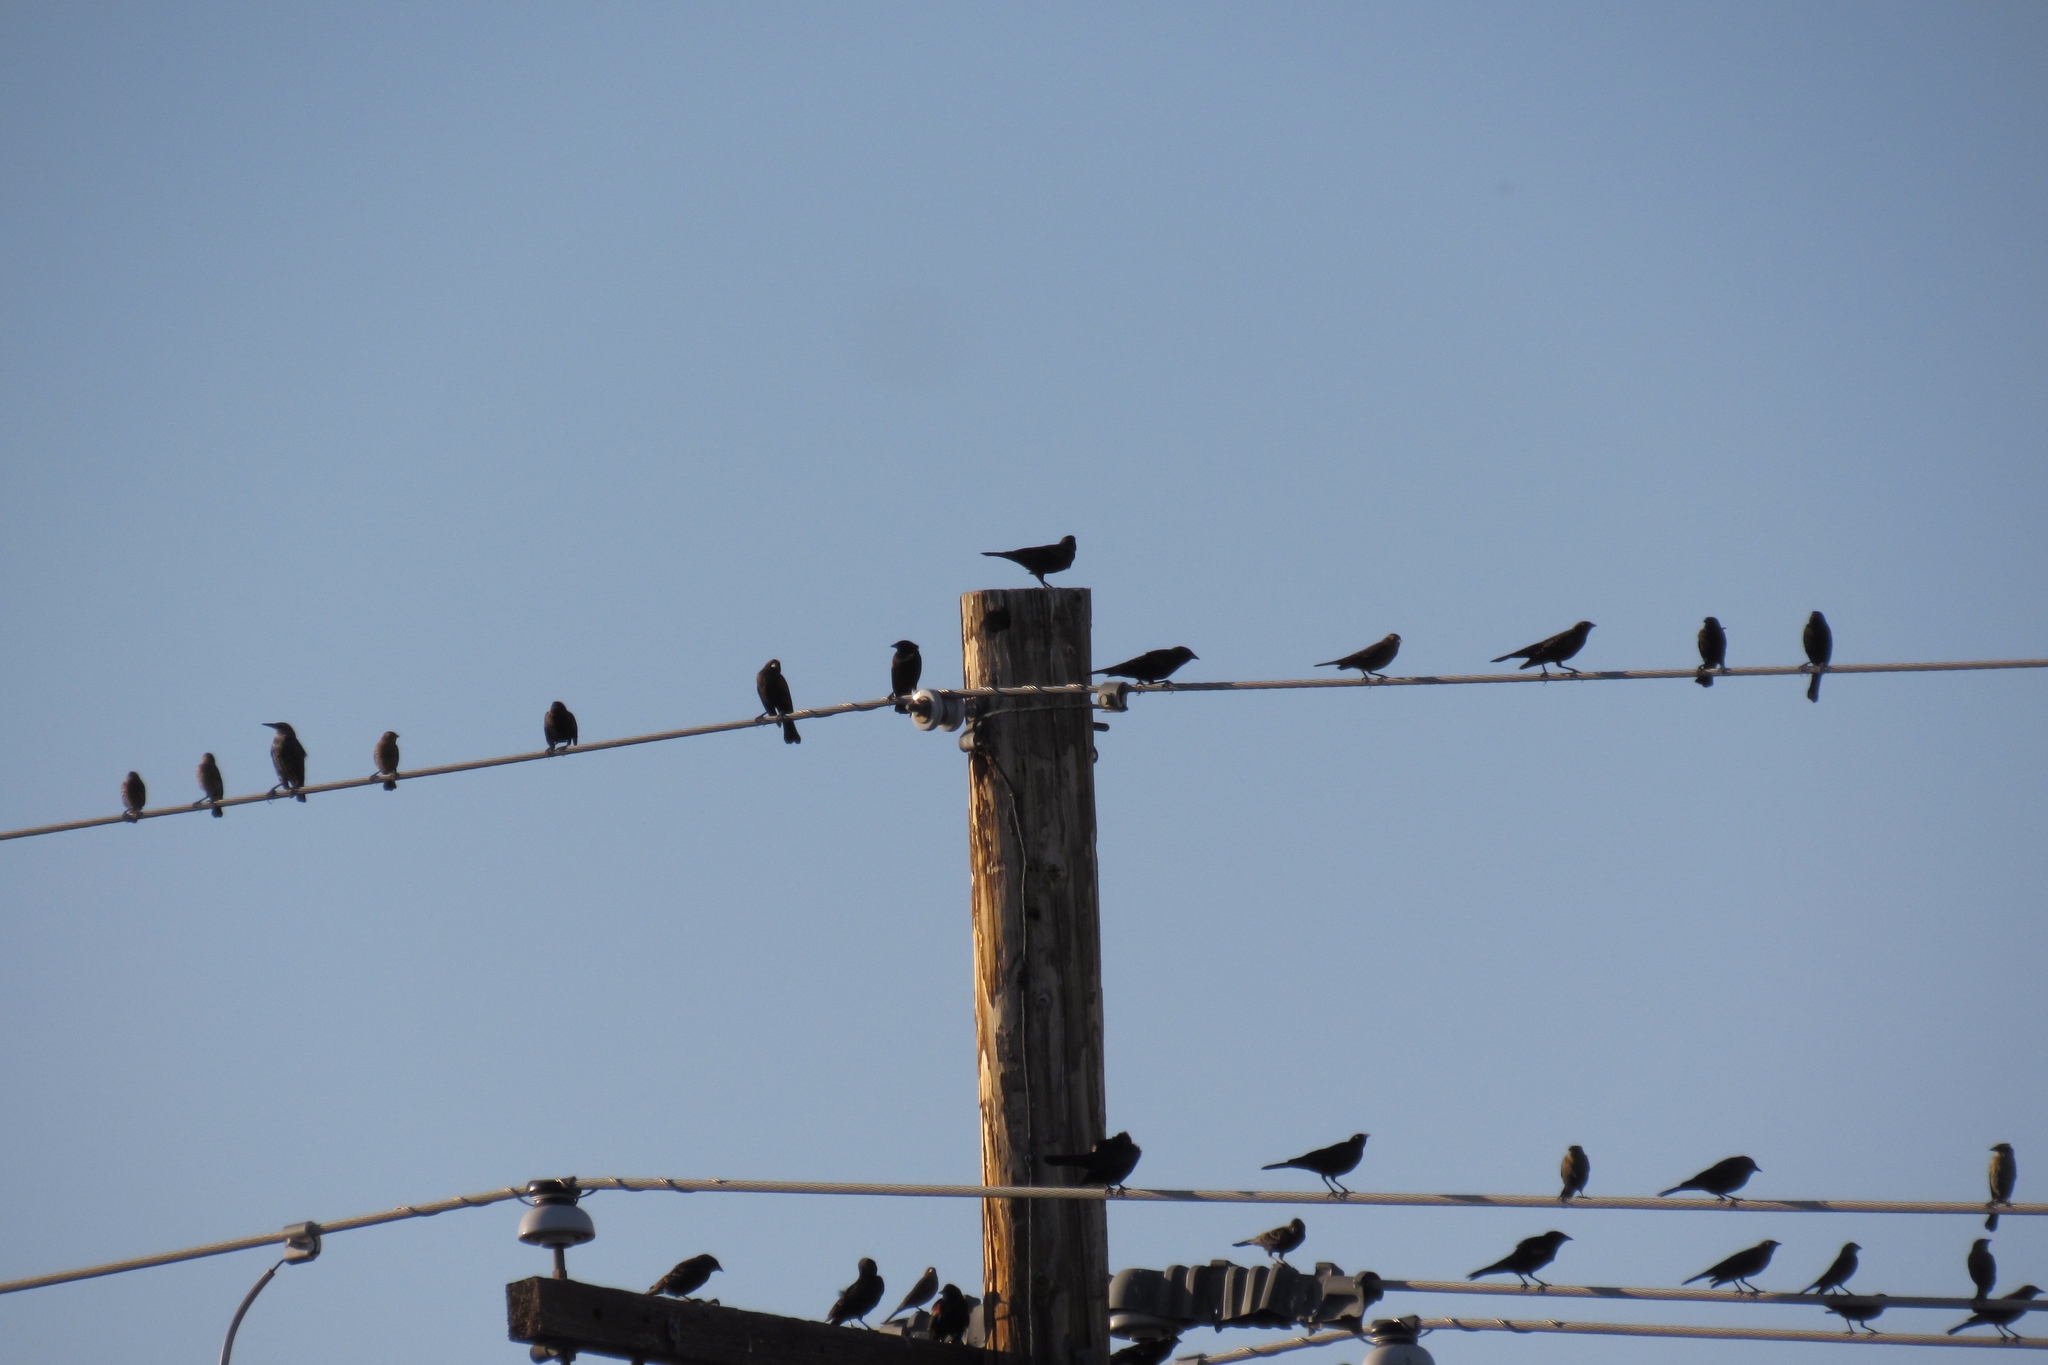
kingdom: Animalia
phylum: Chordata
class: Aves
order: Passeriformes
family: Icteridae
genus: Euphagus
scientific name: Euphagus cyanocephalus
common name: Brewer's blackbird
